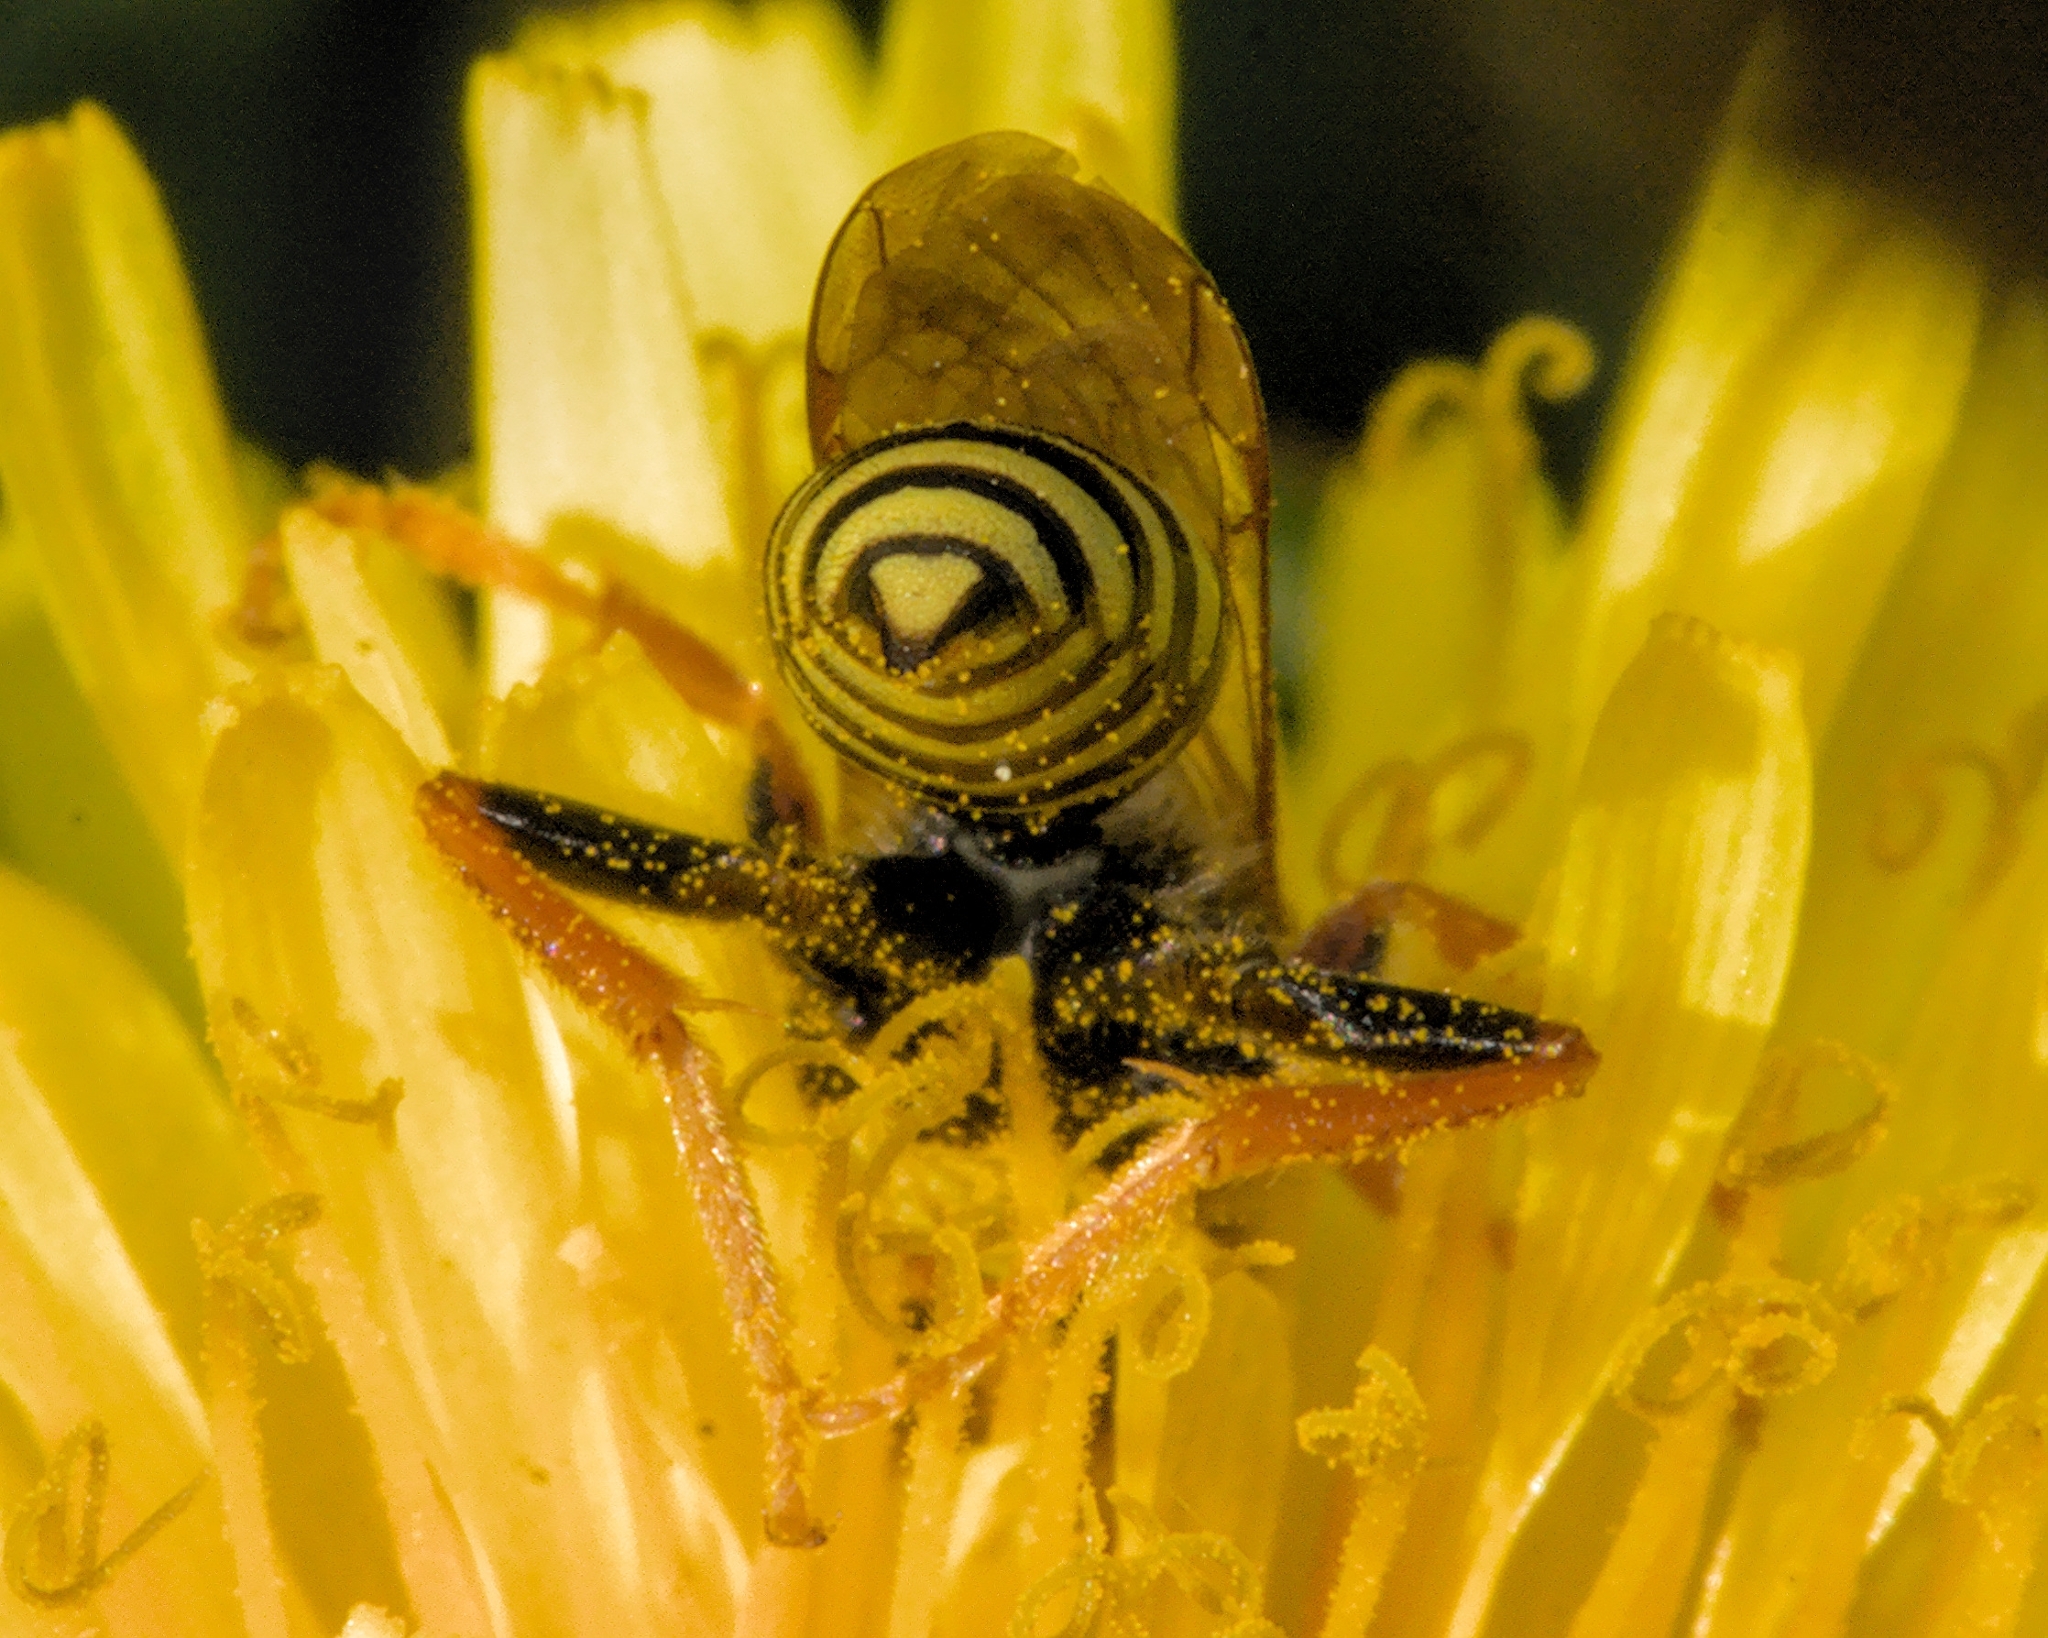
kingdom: Animalia
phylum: Arthropoda
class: Insecta
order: Hymenoptera
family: Apidae
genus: Nomada
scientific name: Nomada goodeniana
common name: Gooden's nomad bee
